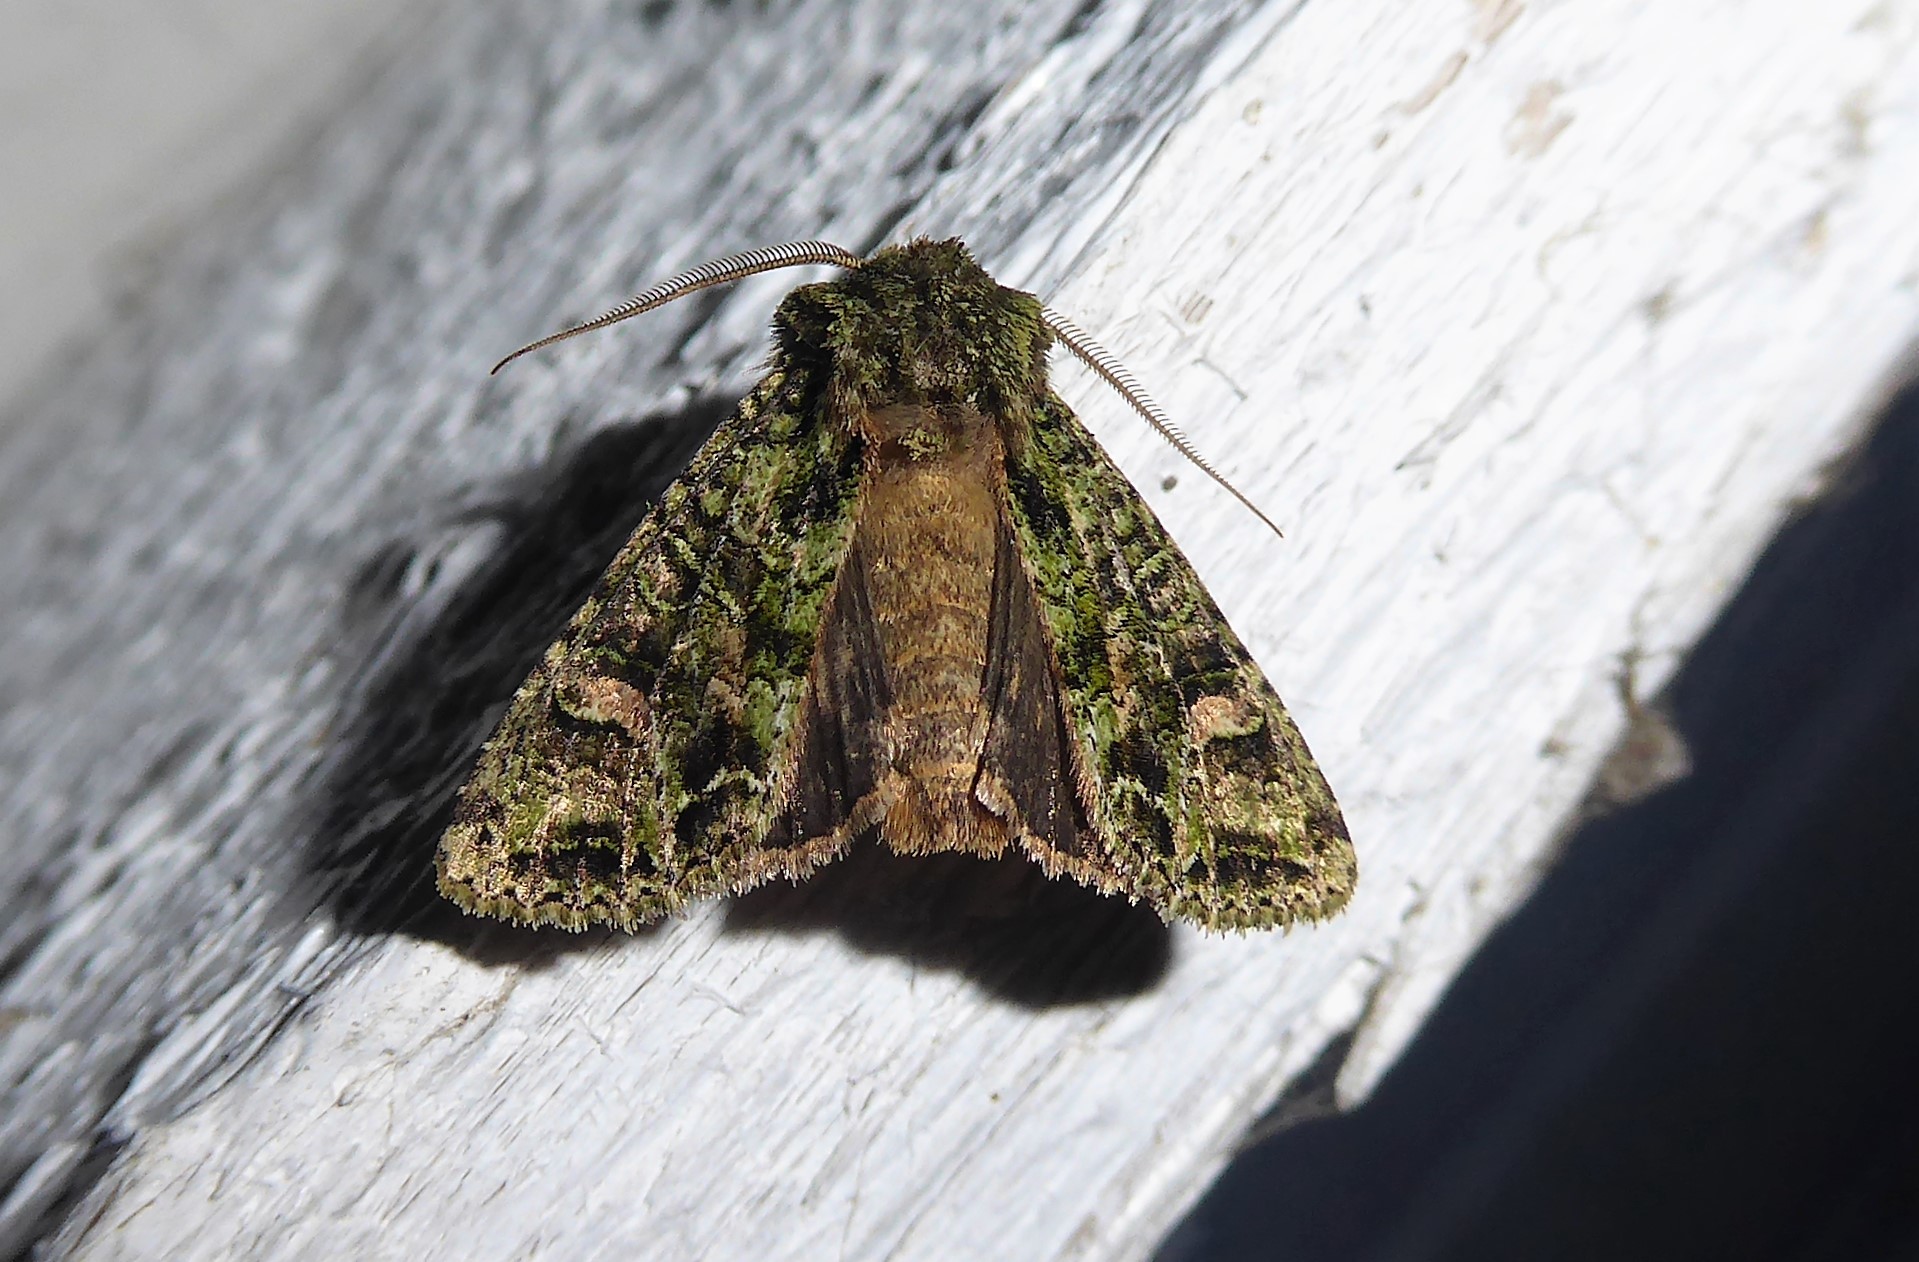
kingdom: Animalia
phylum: Arthropoda
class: Insecta
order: Lepidoptera
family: Noctuidae
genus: Ichneutica
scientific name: Ichneutica
